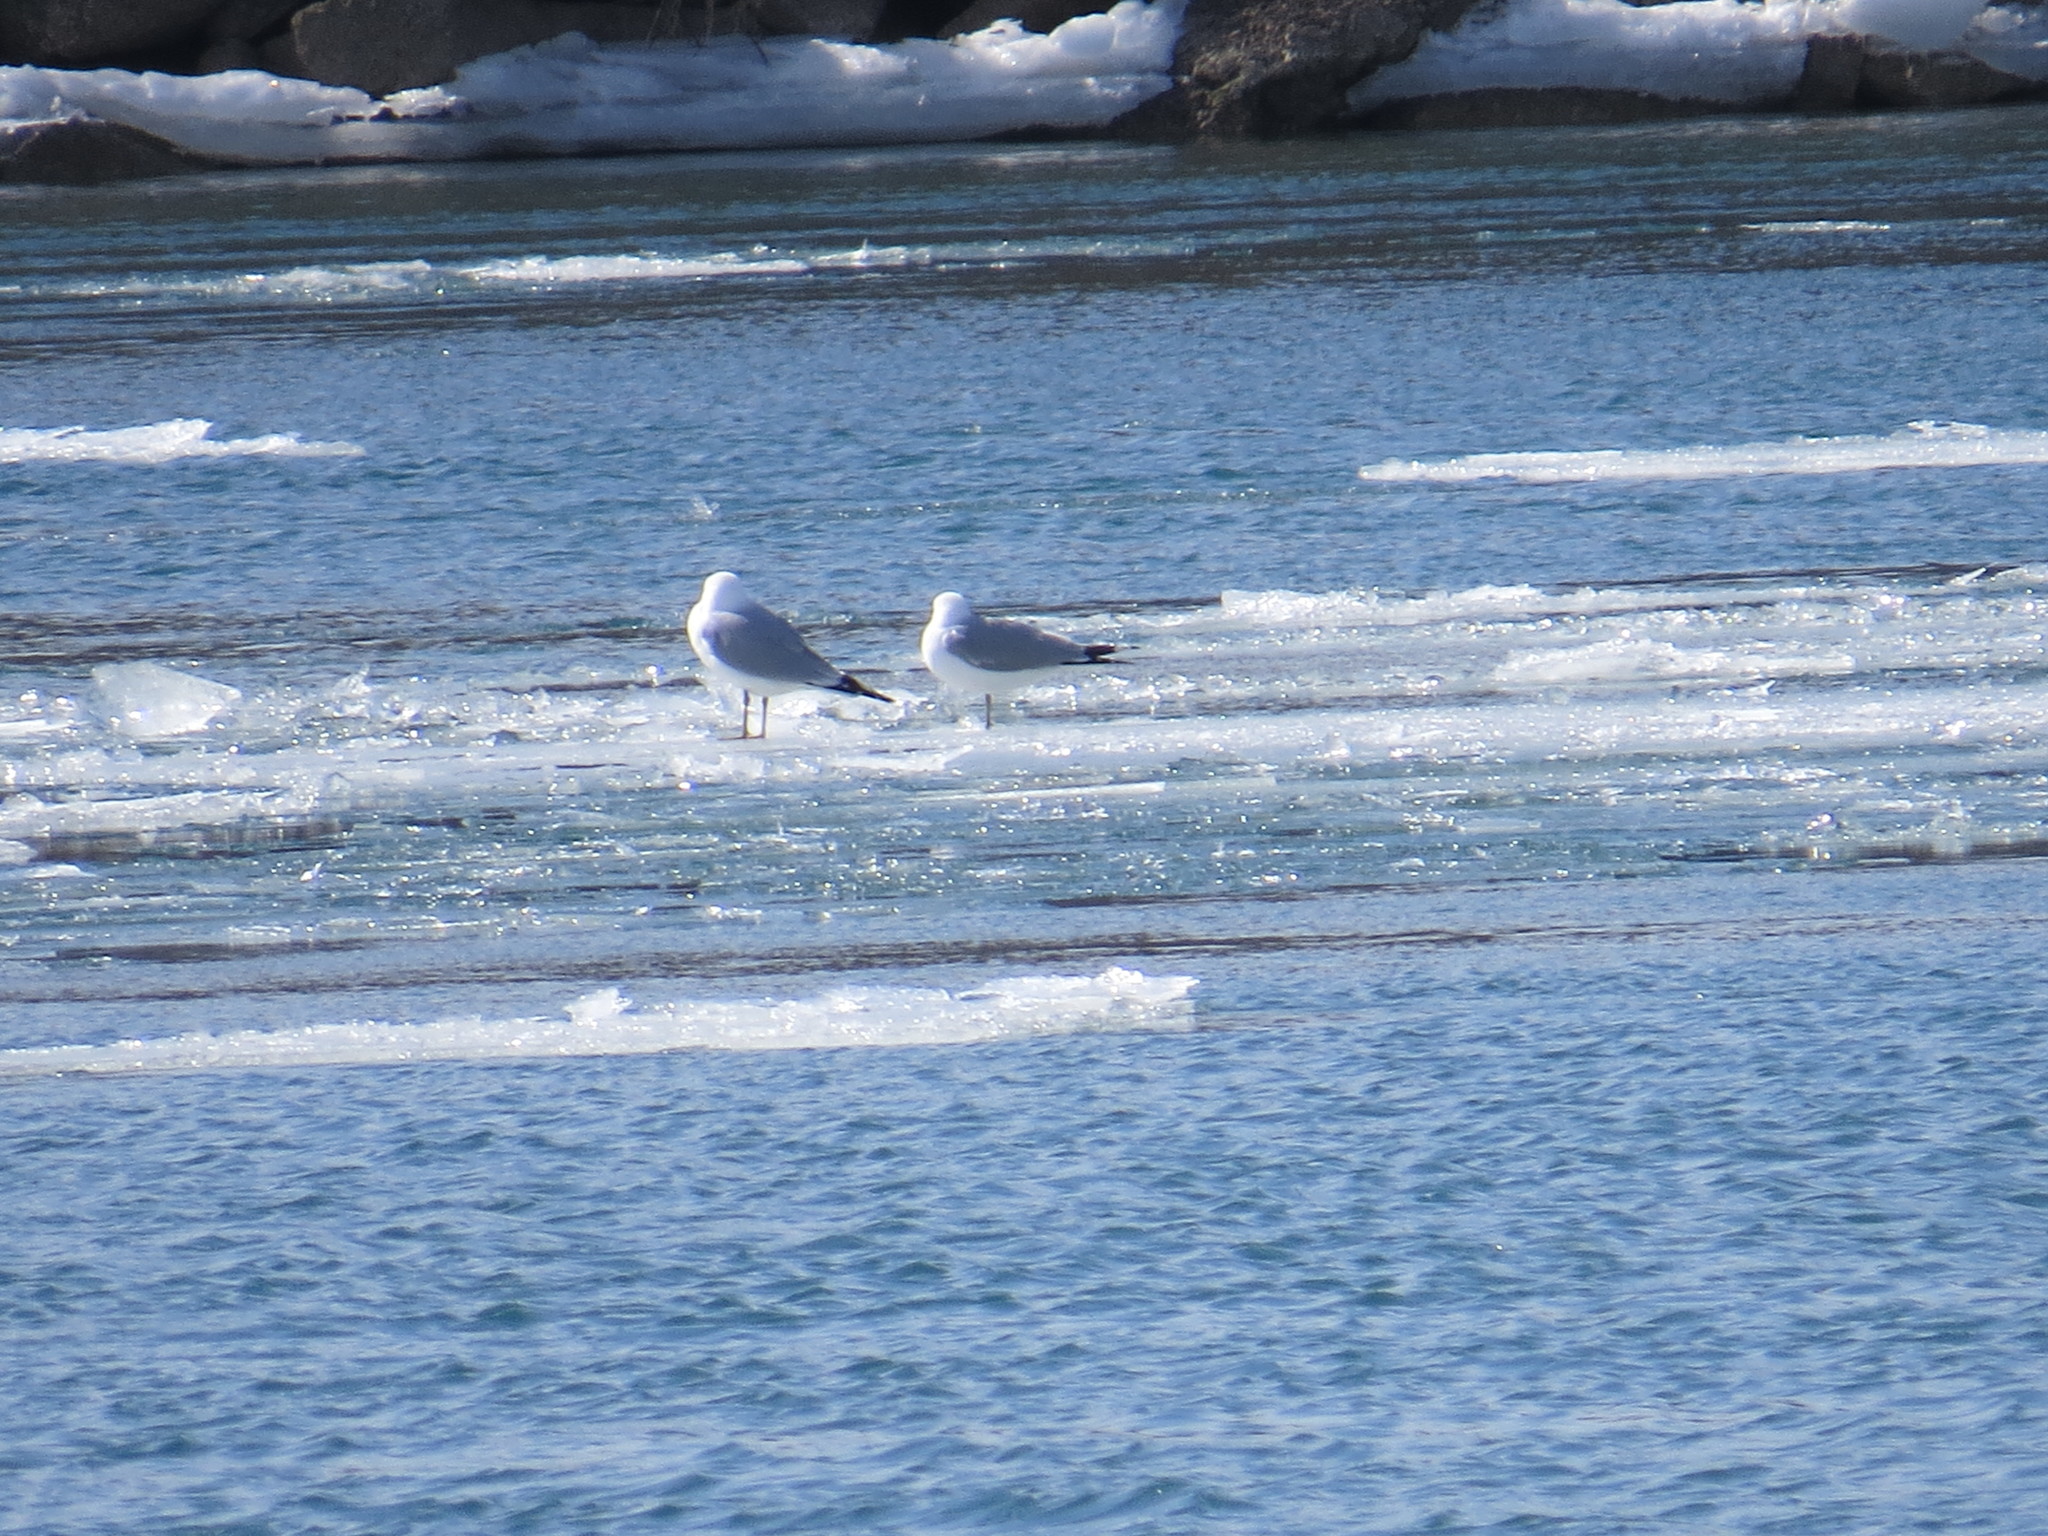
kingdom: Animalia
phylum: Chordata
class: Aves
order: Charadriiformes
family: Laridae
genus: Larus
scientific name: Larus delawarensis
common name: Ring-billed gull
